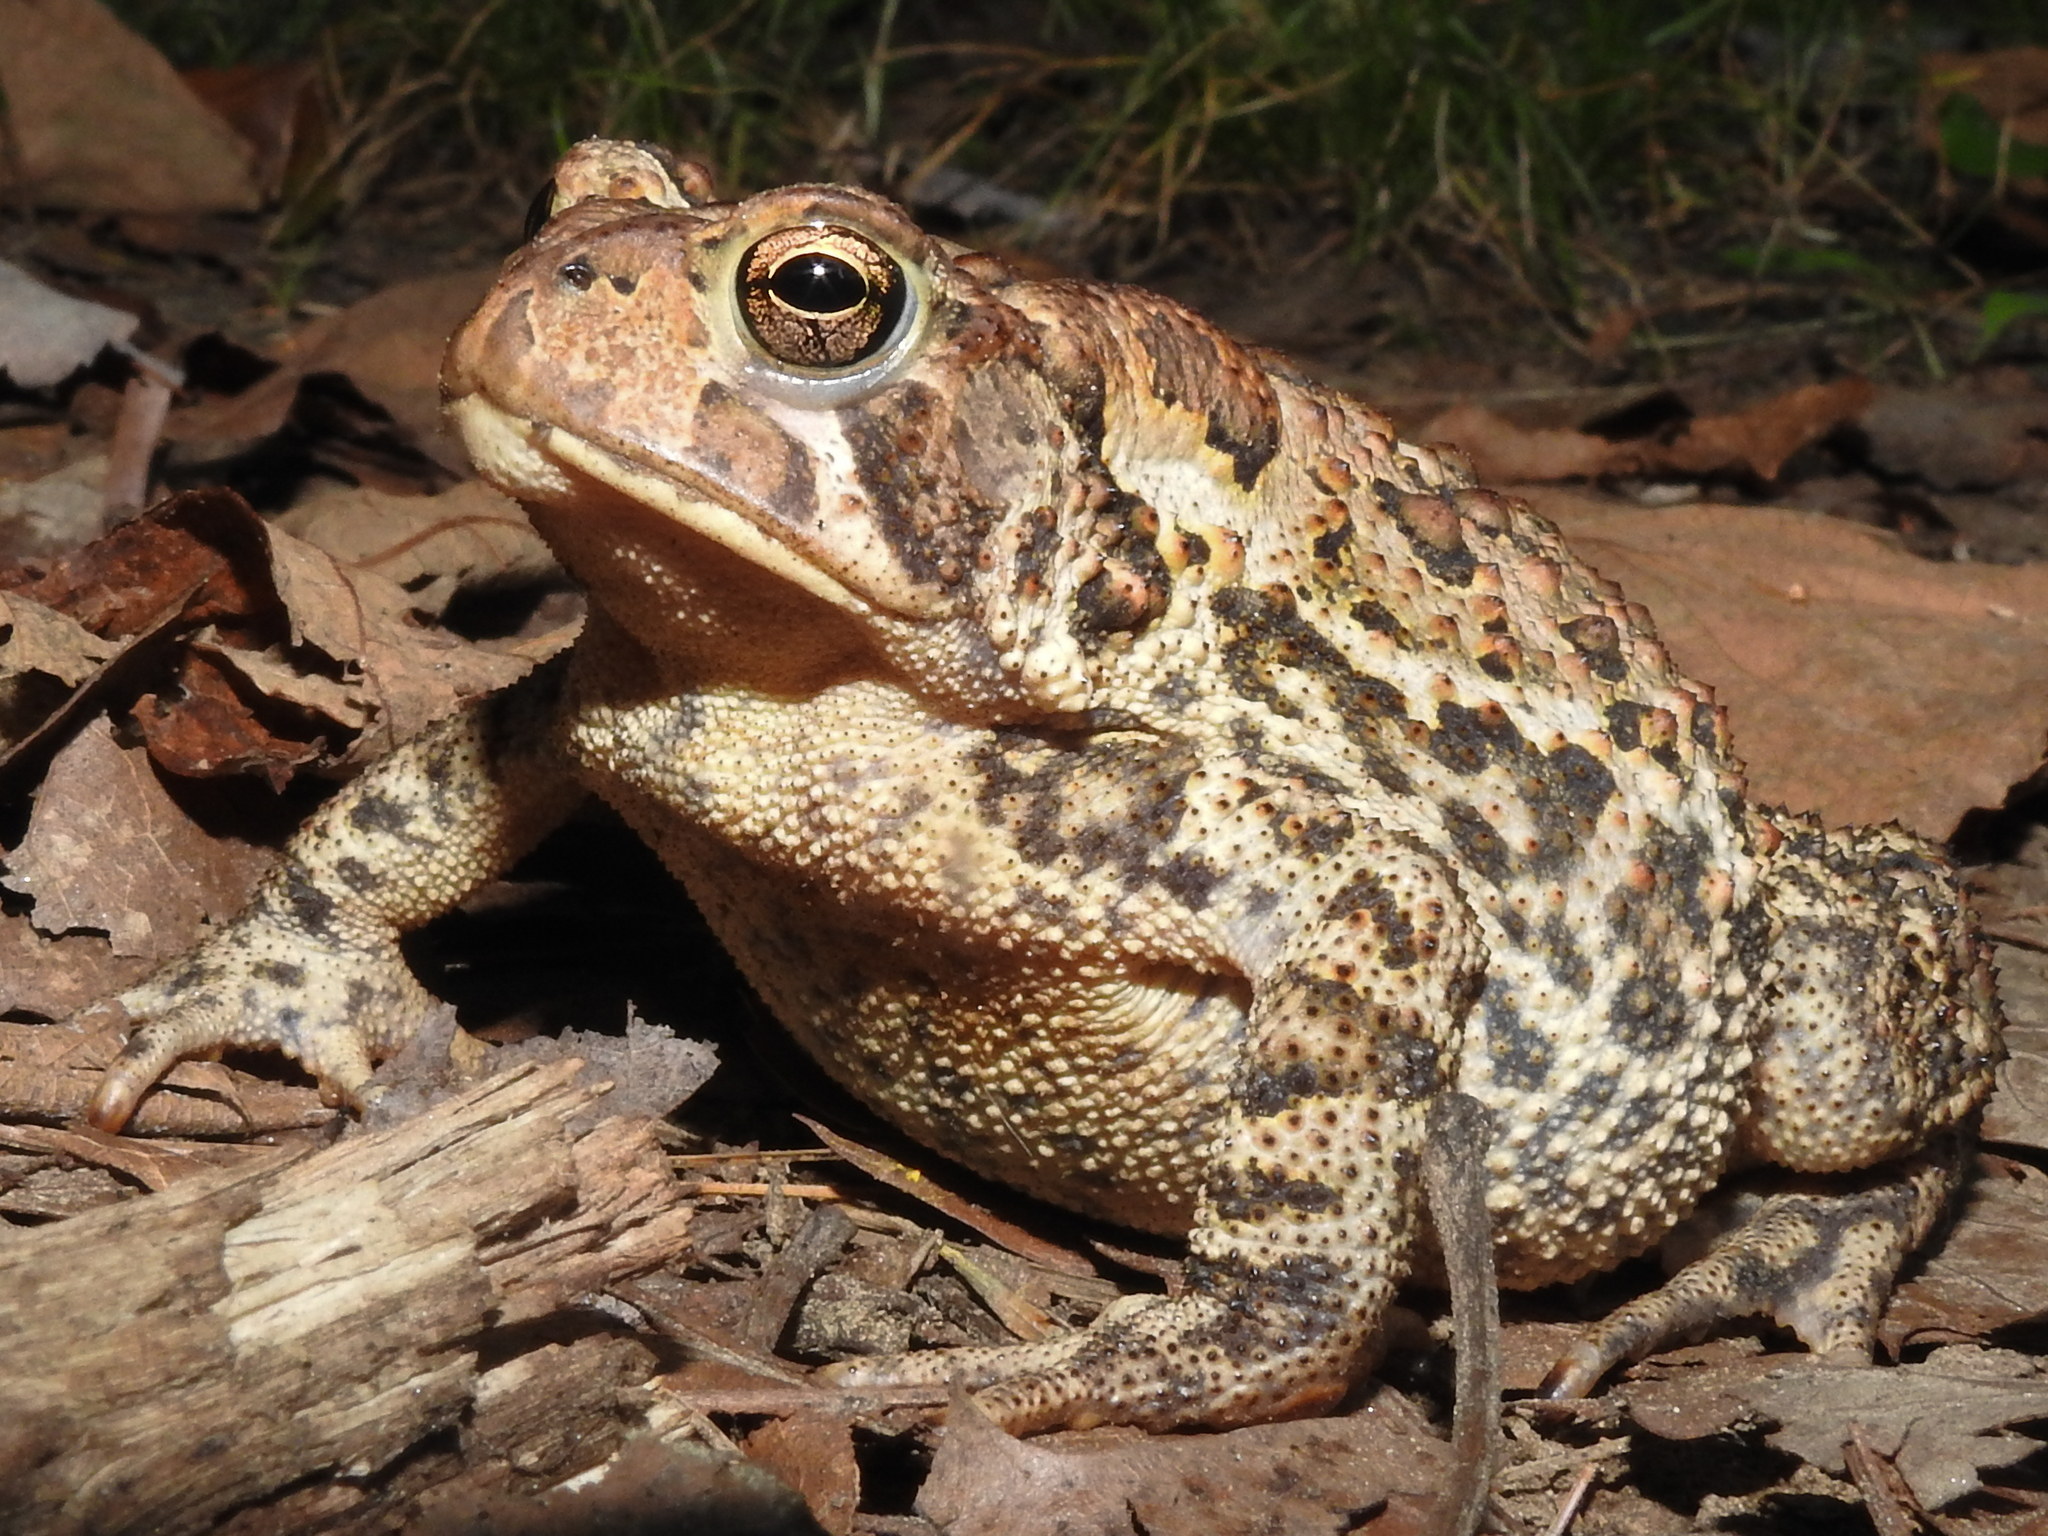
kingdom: Animalia
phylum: Chordata
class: Amphibia
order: Anura
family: Bufonidae
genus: Anaxyrus
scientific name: Anaxyrus americanus
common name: American toad
